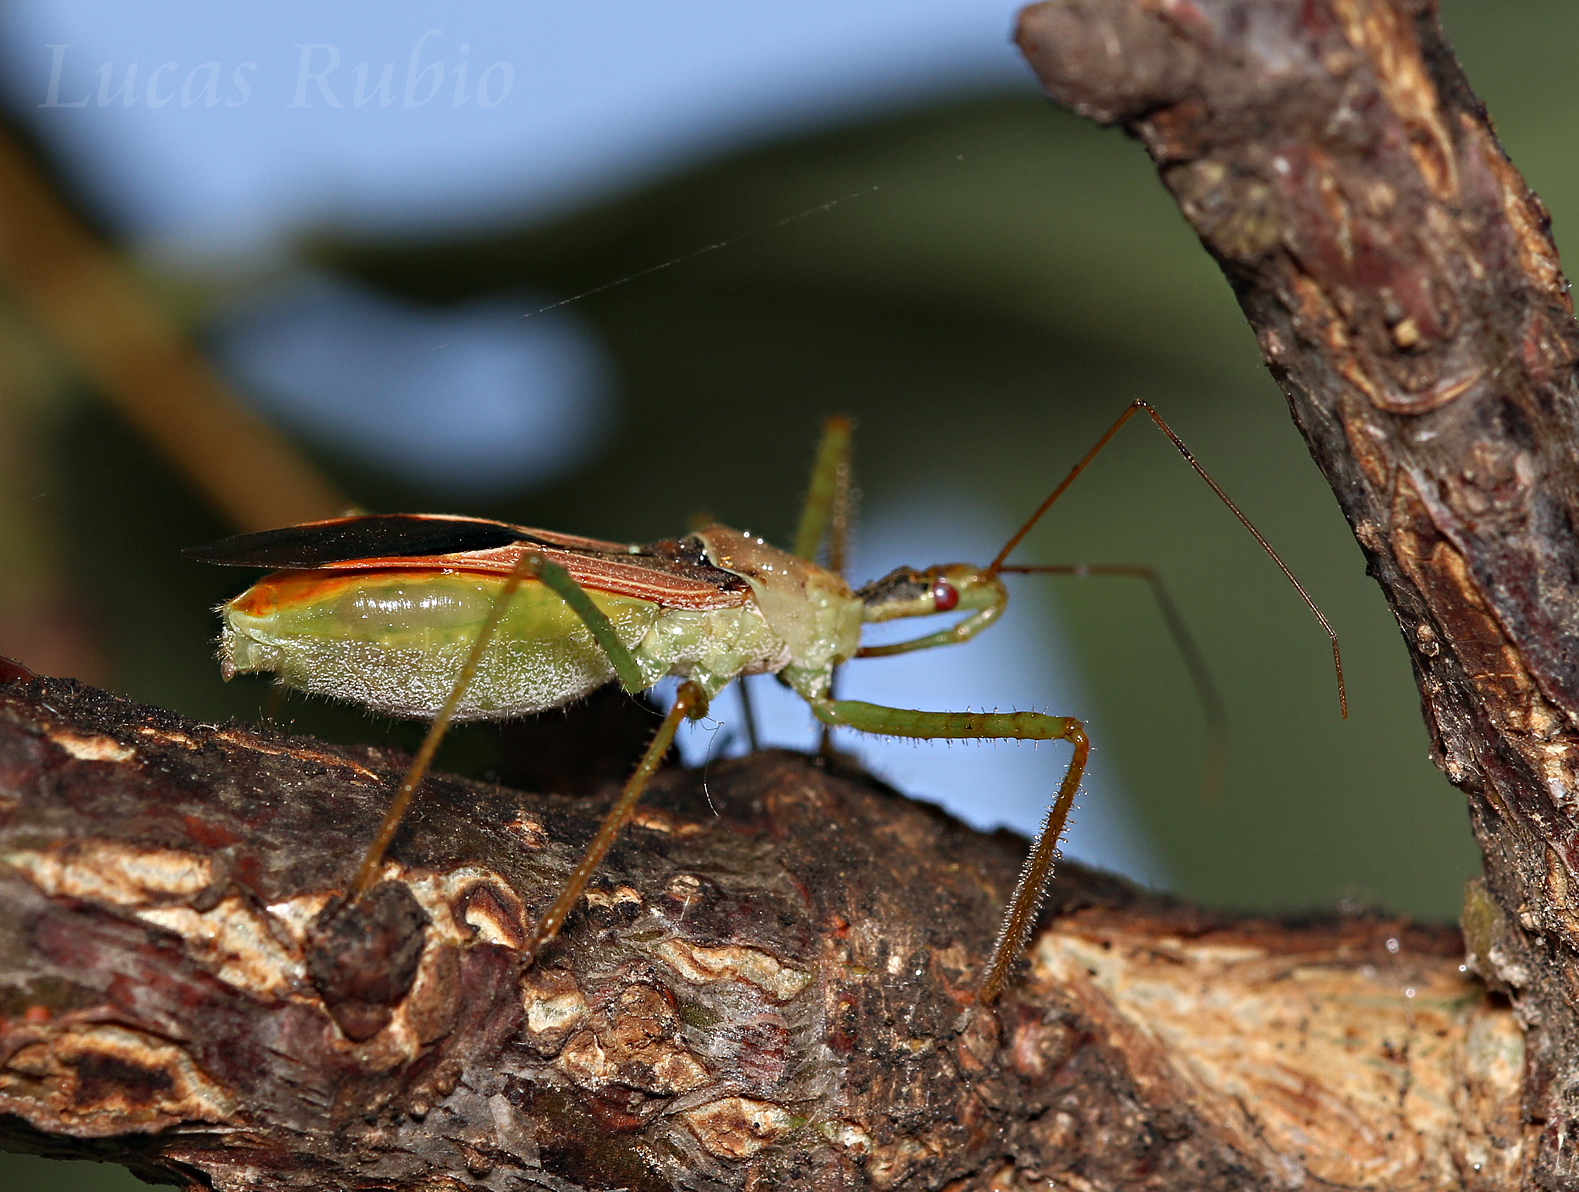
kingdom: Animalia
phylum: Arthropoda
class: Insecta
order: Hemiptera
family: Reduviidae
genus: Zelus
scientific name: Zelus renardii
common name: Assassin bug
